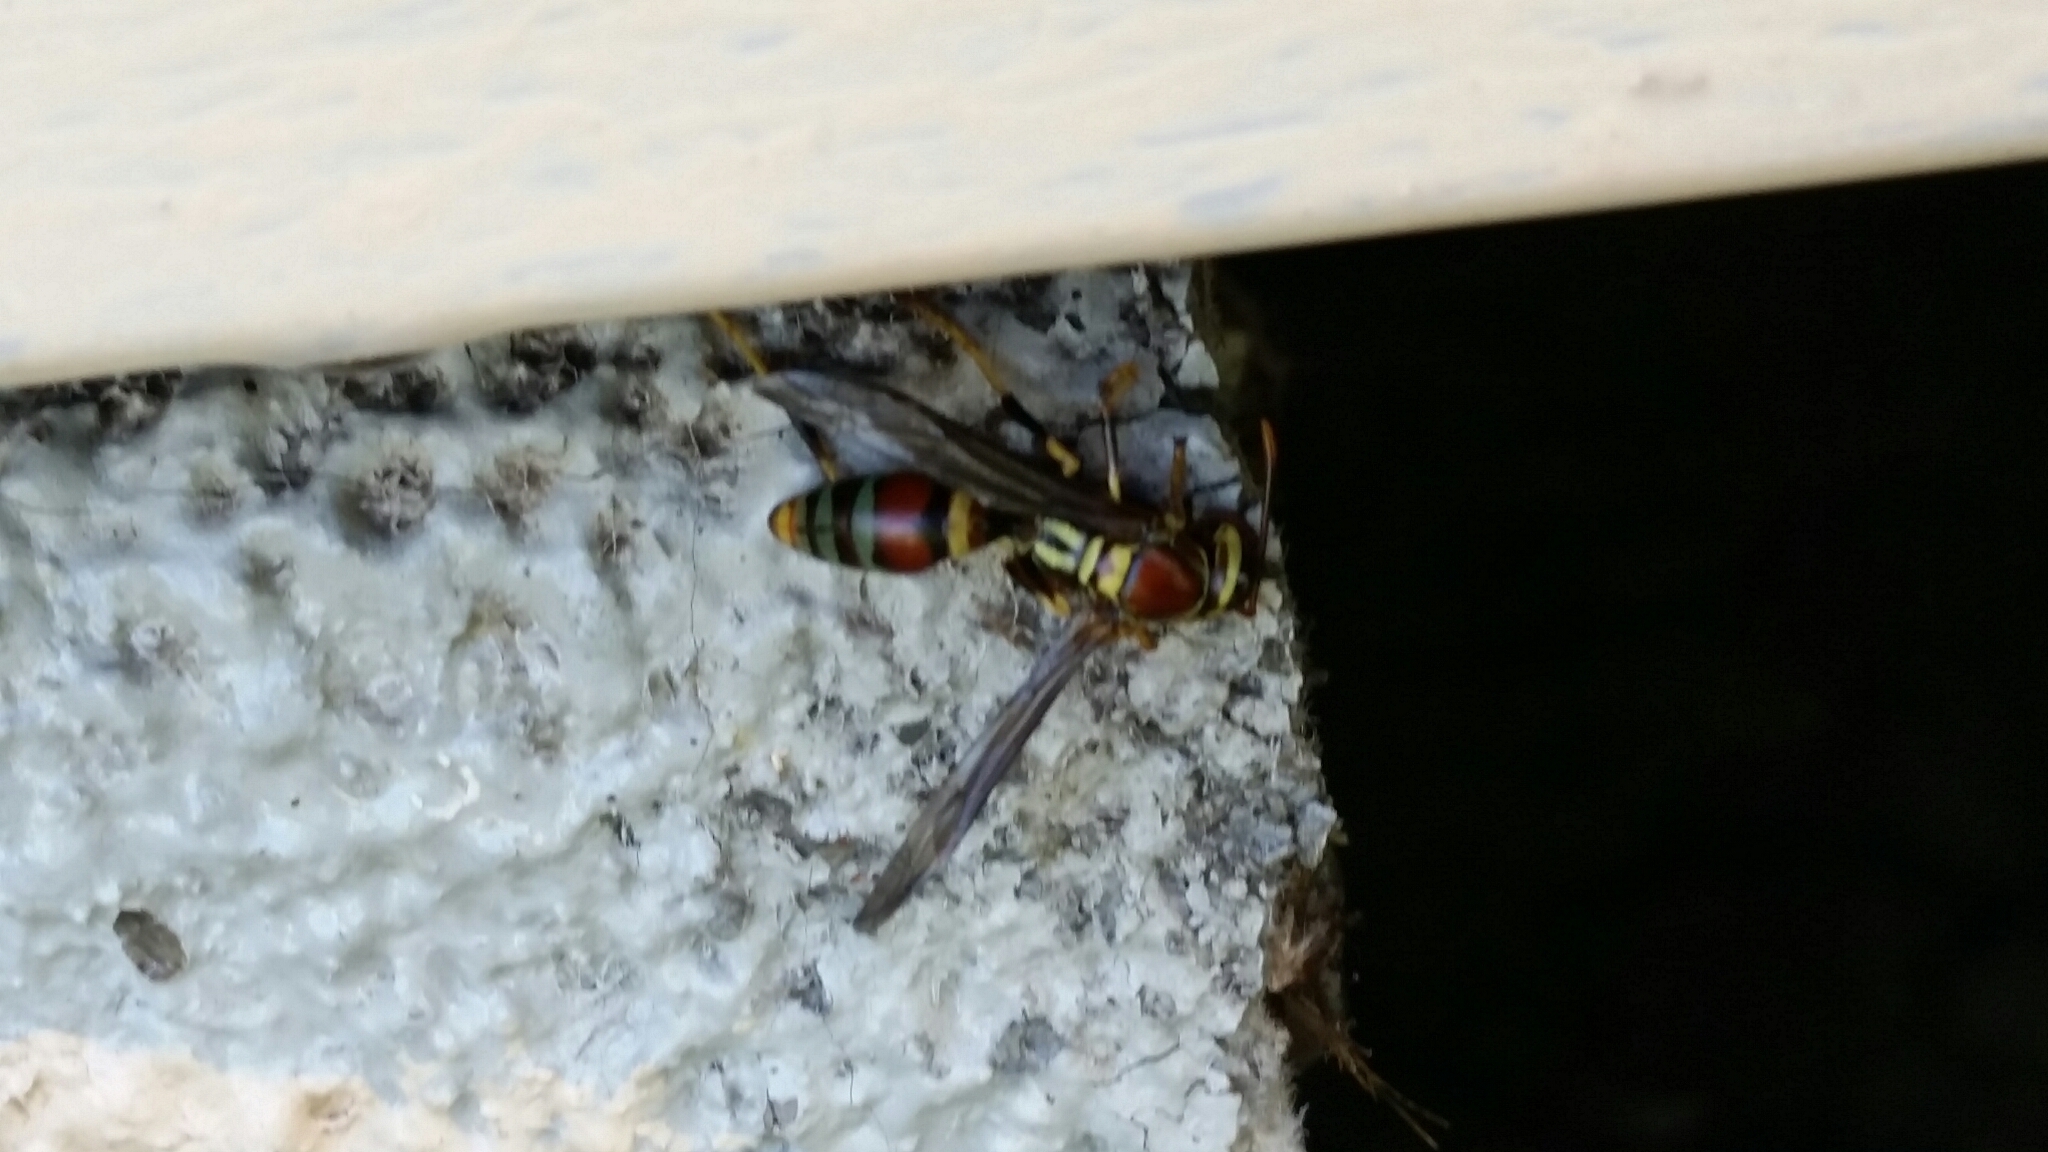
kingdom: Animalia
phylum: Arthropoda
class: Insecta
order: Hymenoptera
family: Eumenidae
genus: Polistes
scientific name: Polistes exclamans
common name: Paper wasp
